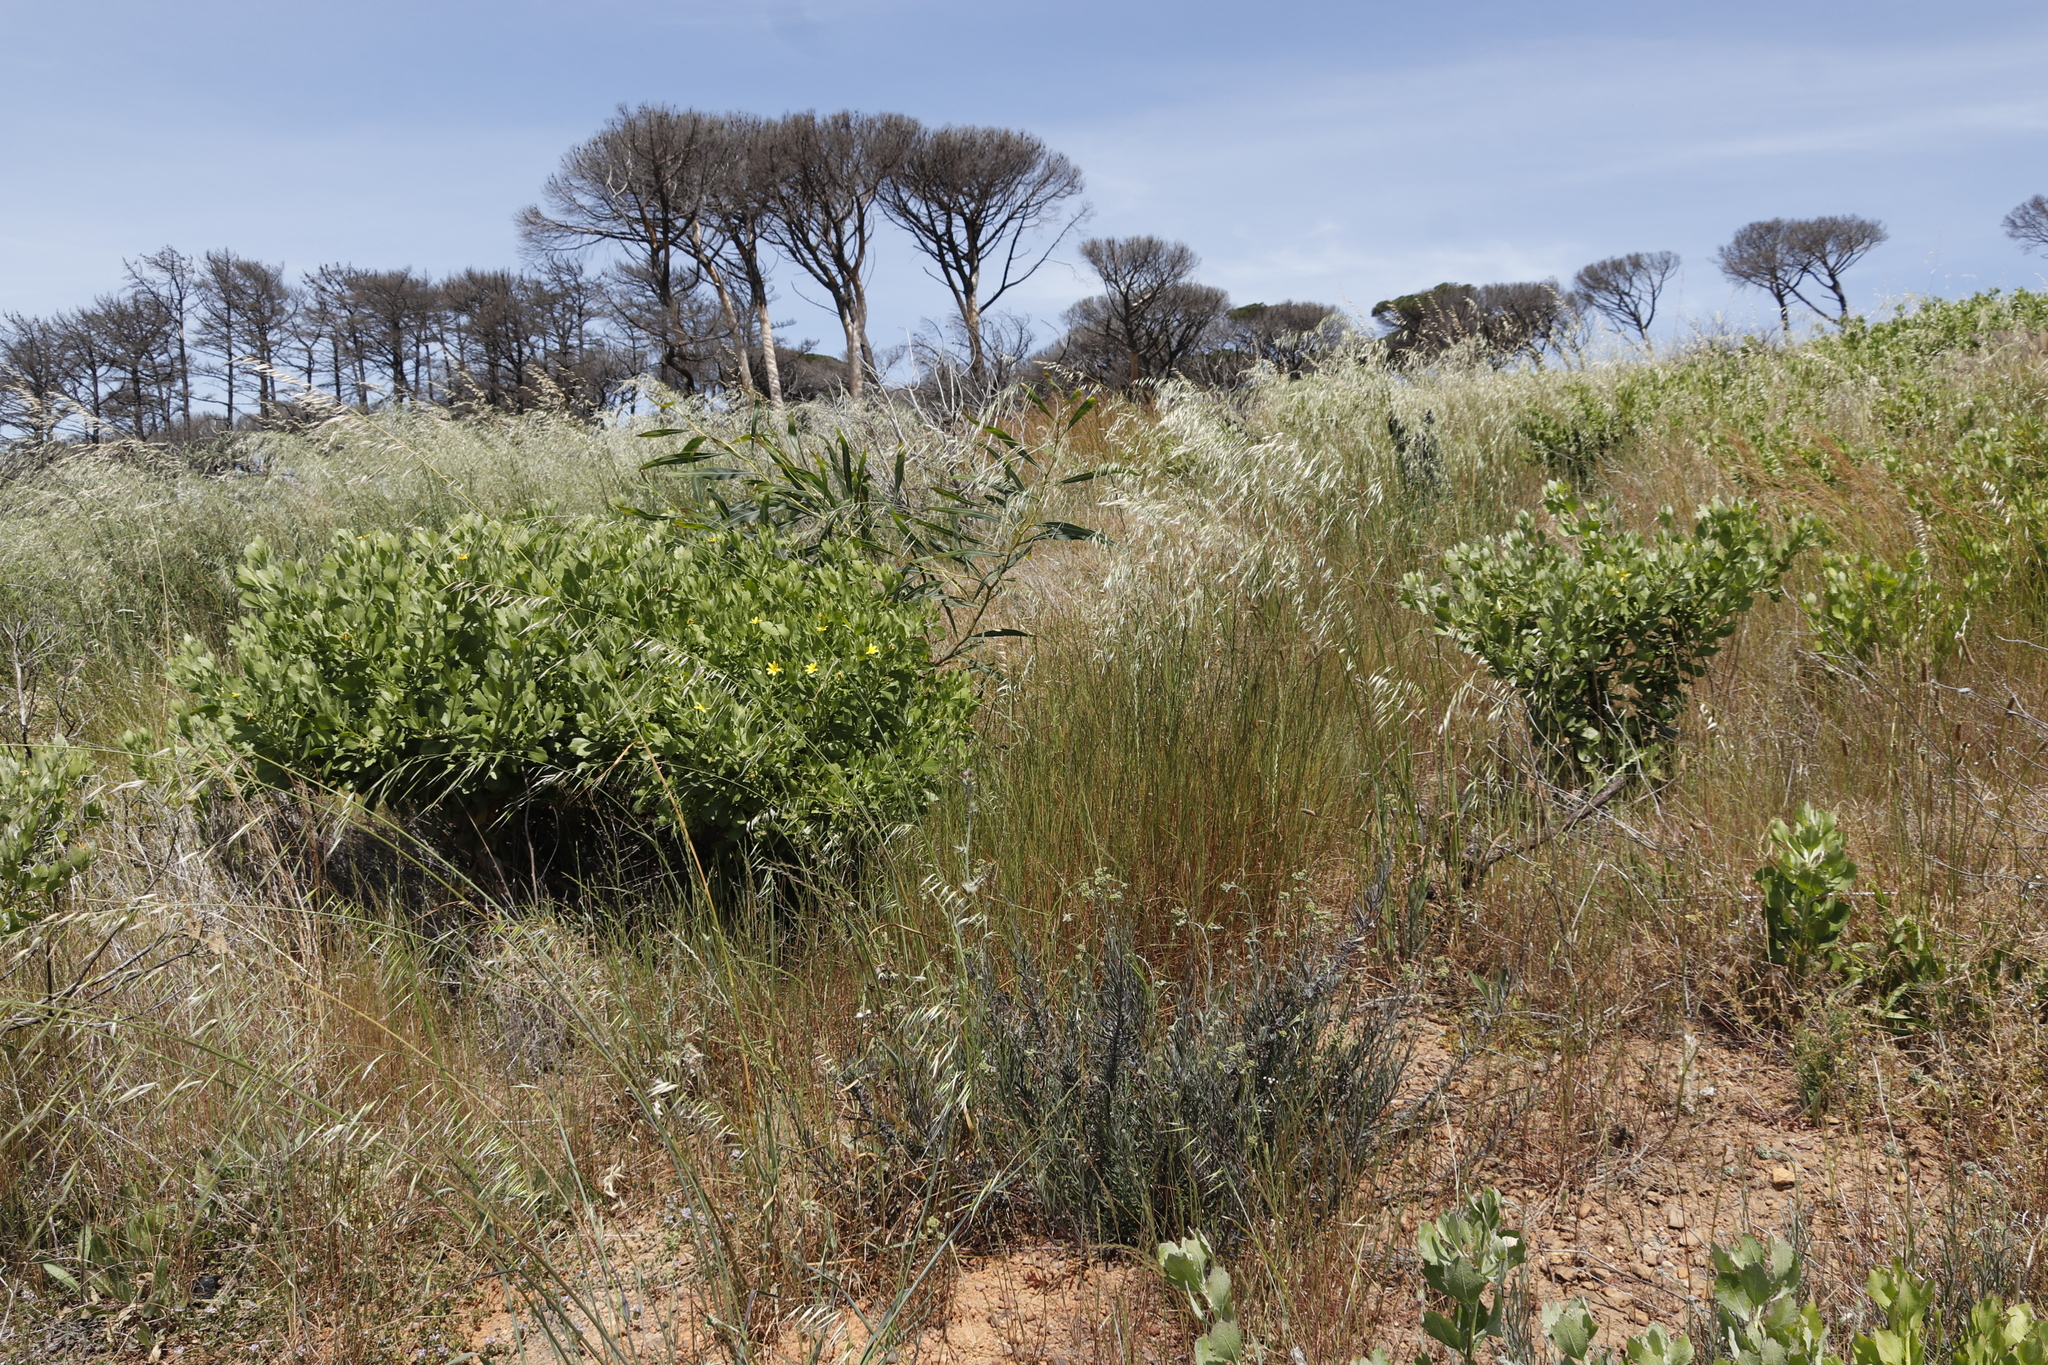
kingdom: Plantae
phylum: Tracheophyta
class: Liliopsida
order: Poales
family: Poaceae
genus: Avena
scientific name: Avena fatua
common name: Wild oat
